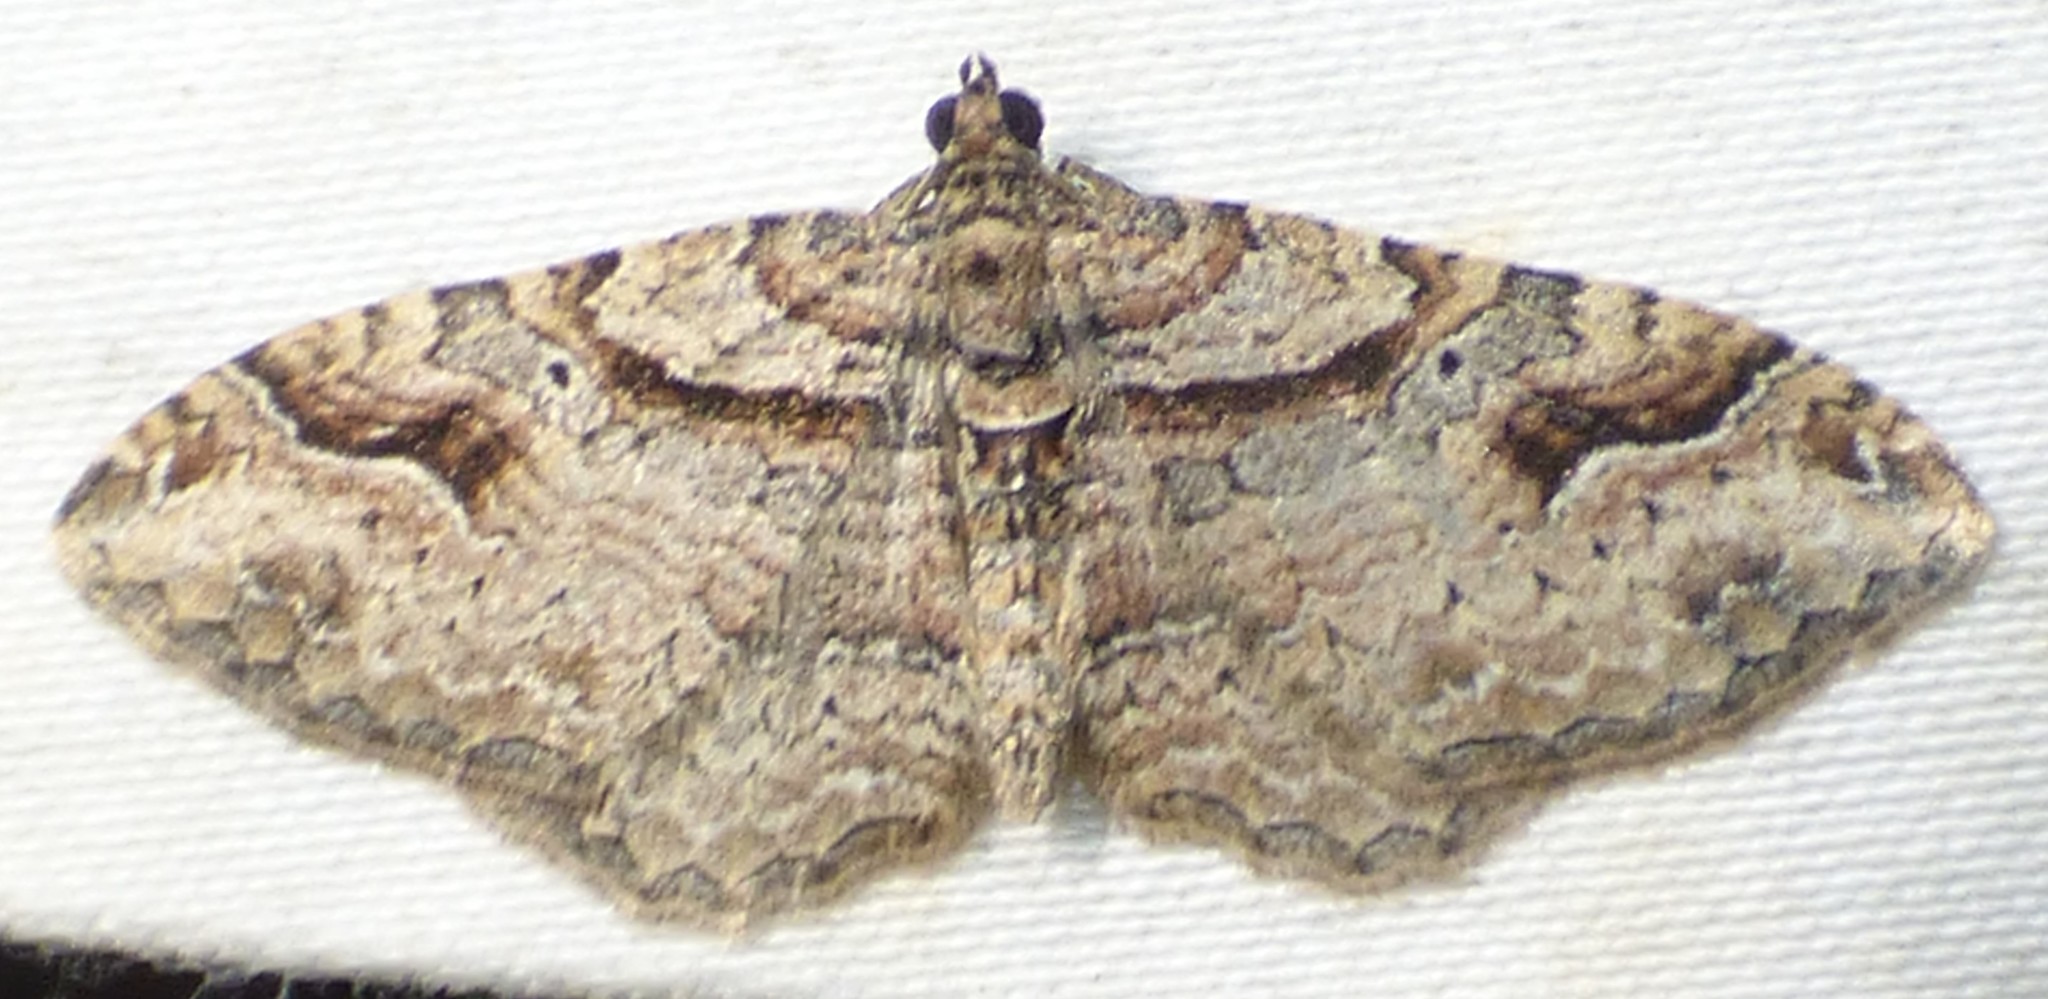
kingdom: Animalia
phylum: Arthropoda
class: Insecta
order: Lepidoptera
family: Geometridae
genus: Costaconvexa
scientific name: Costaconvexa centrostrigaria
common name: Bent-line carpet
